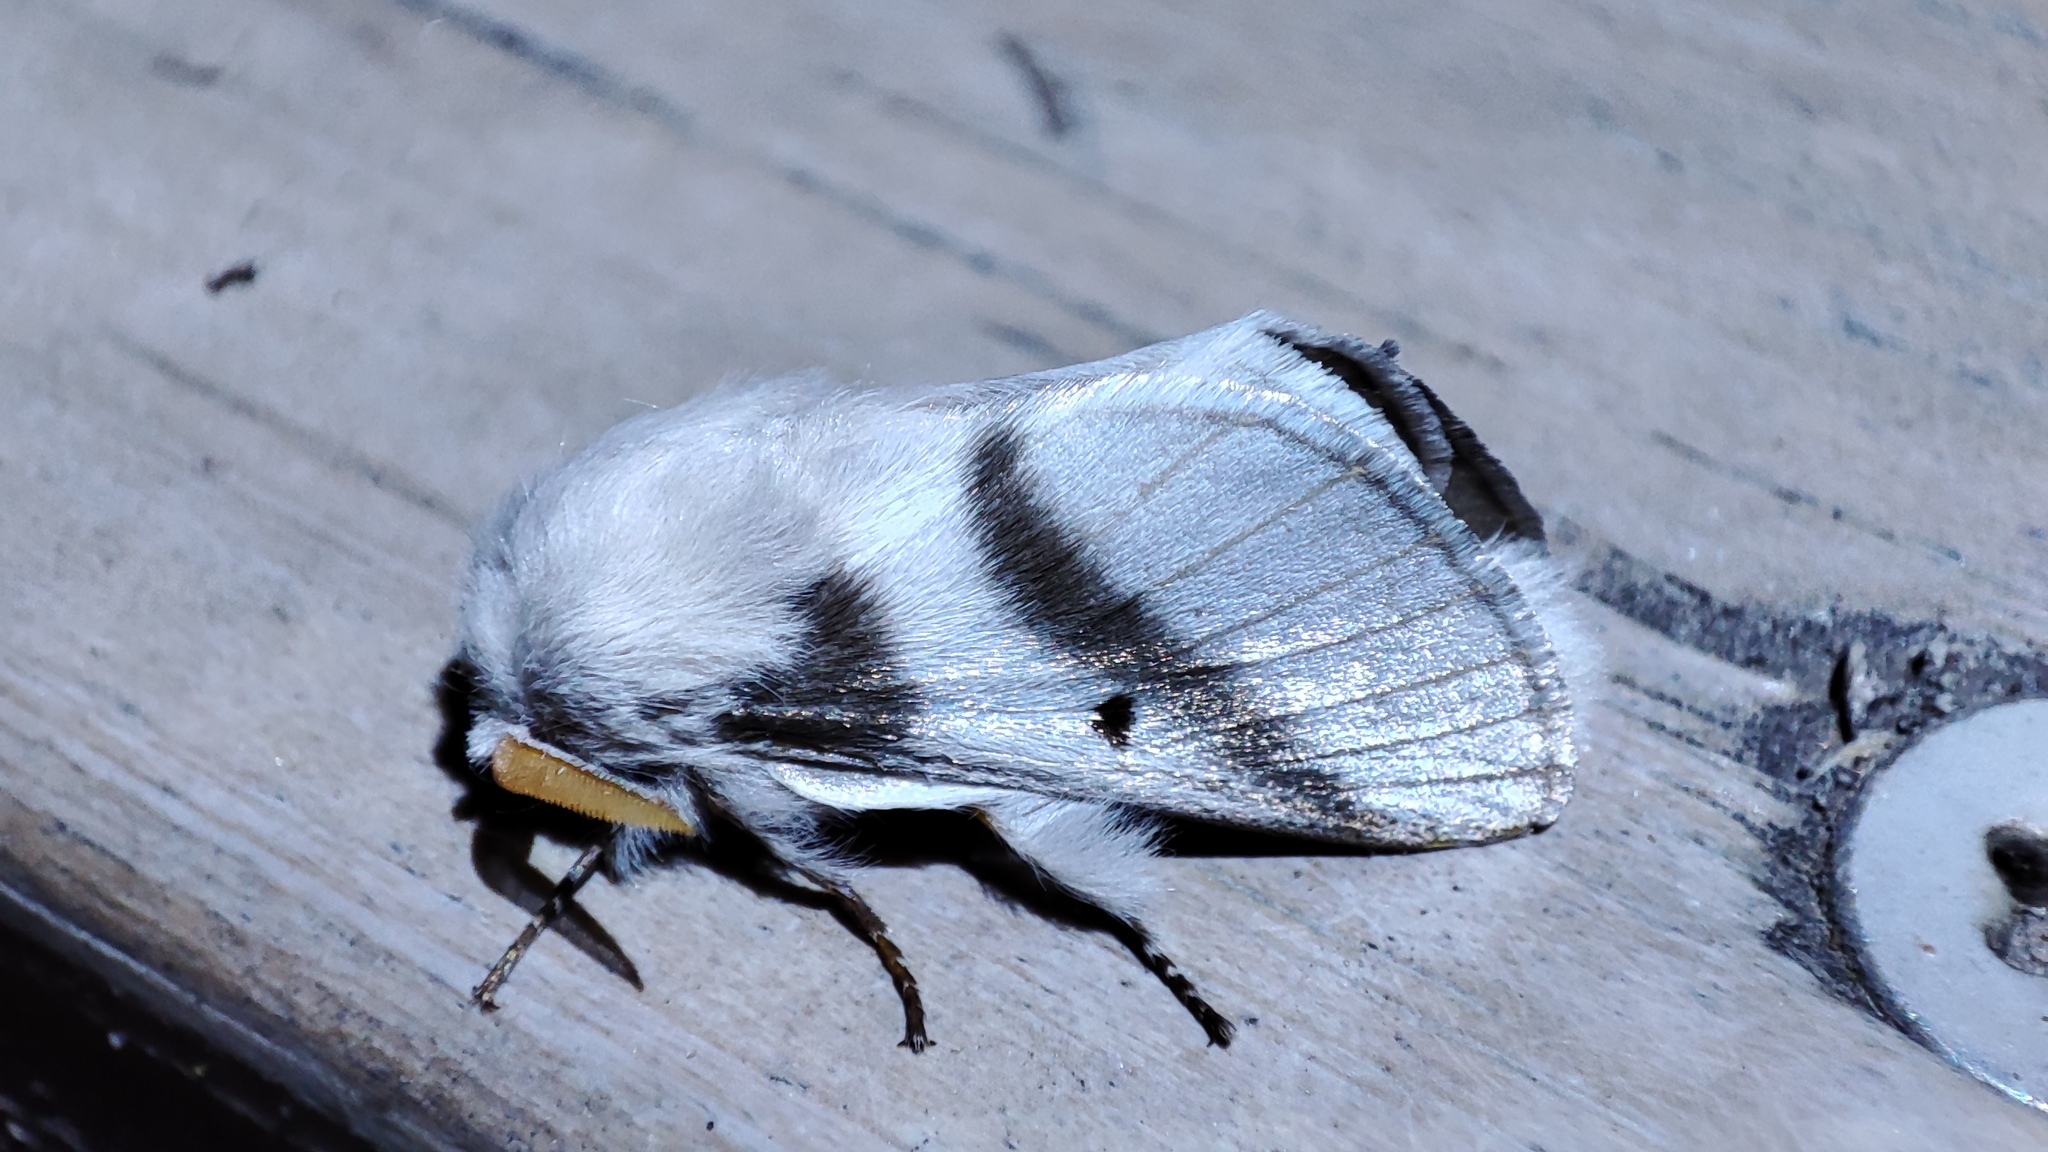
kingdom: Animalia
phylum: Arthropoda
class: Insecta
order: Lepidoptera
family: Lasiocampidae
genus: Bombycomorpha
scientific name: Bombycomorpha bifascia
